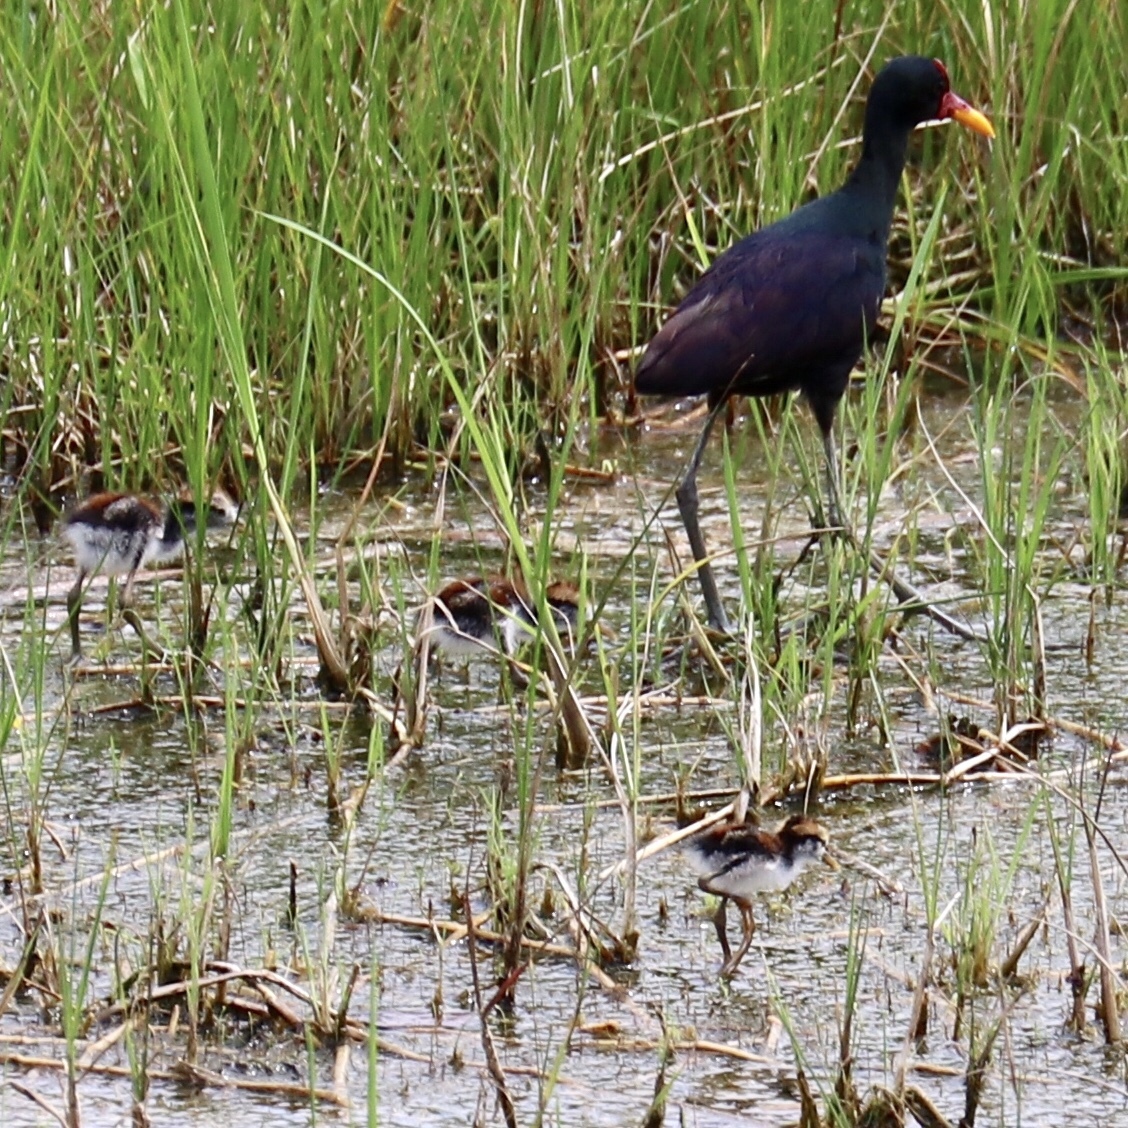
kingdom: Animalia
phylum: Chordata
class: Aves
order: Charadriiformes
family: Jacanidae
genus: Jacana
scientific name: Jacana jacana
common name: Wattled jacana
